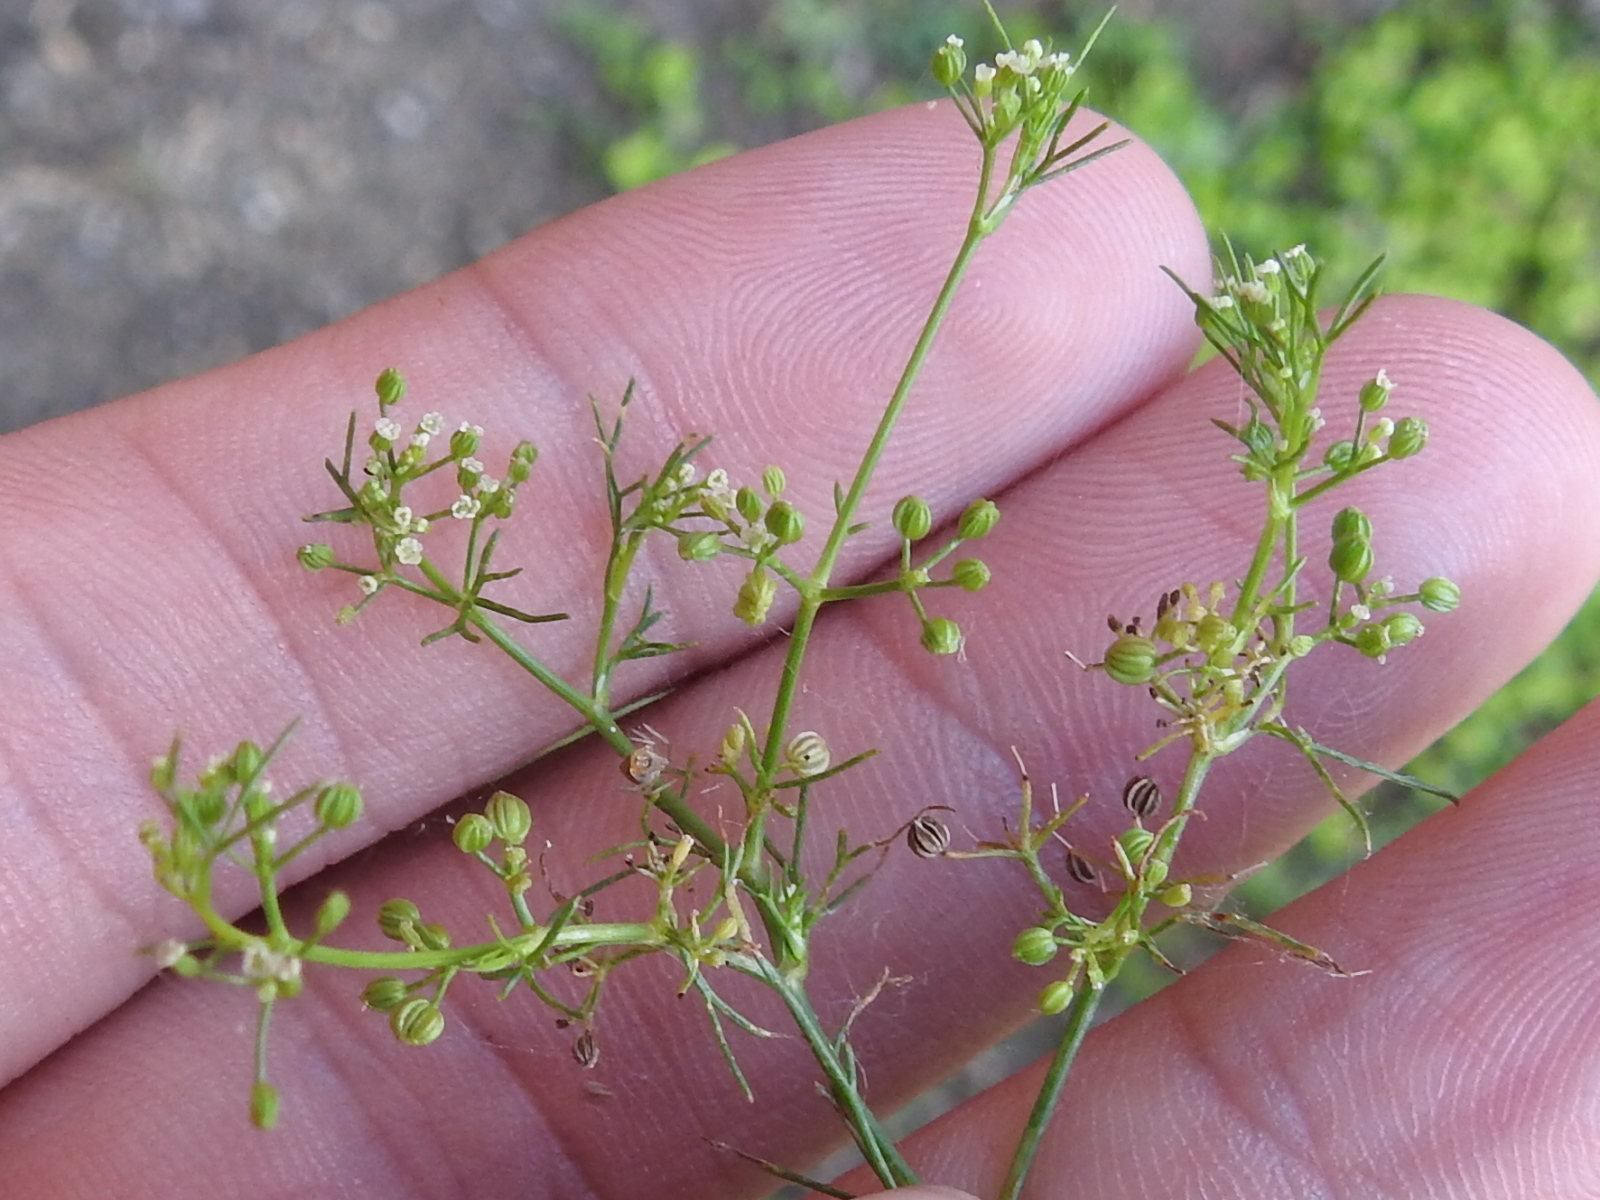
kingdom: Plantae
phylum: Tracheophyta
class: Magnoliopsida
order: Apiales
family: Apiaceae
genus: Cyclospermum
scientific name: Cyclospermum leptophyllum
